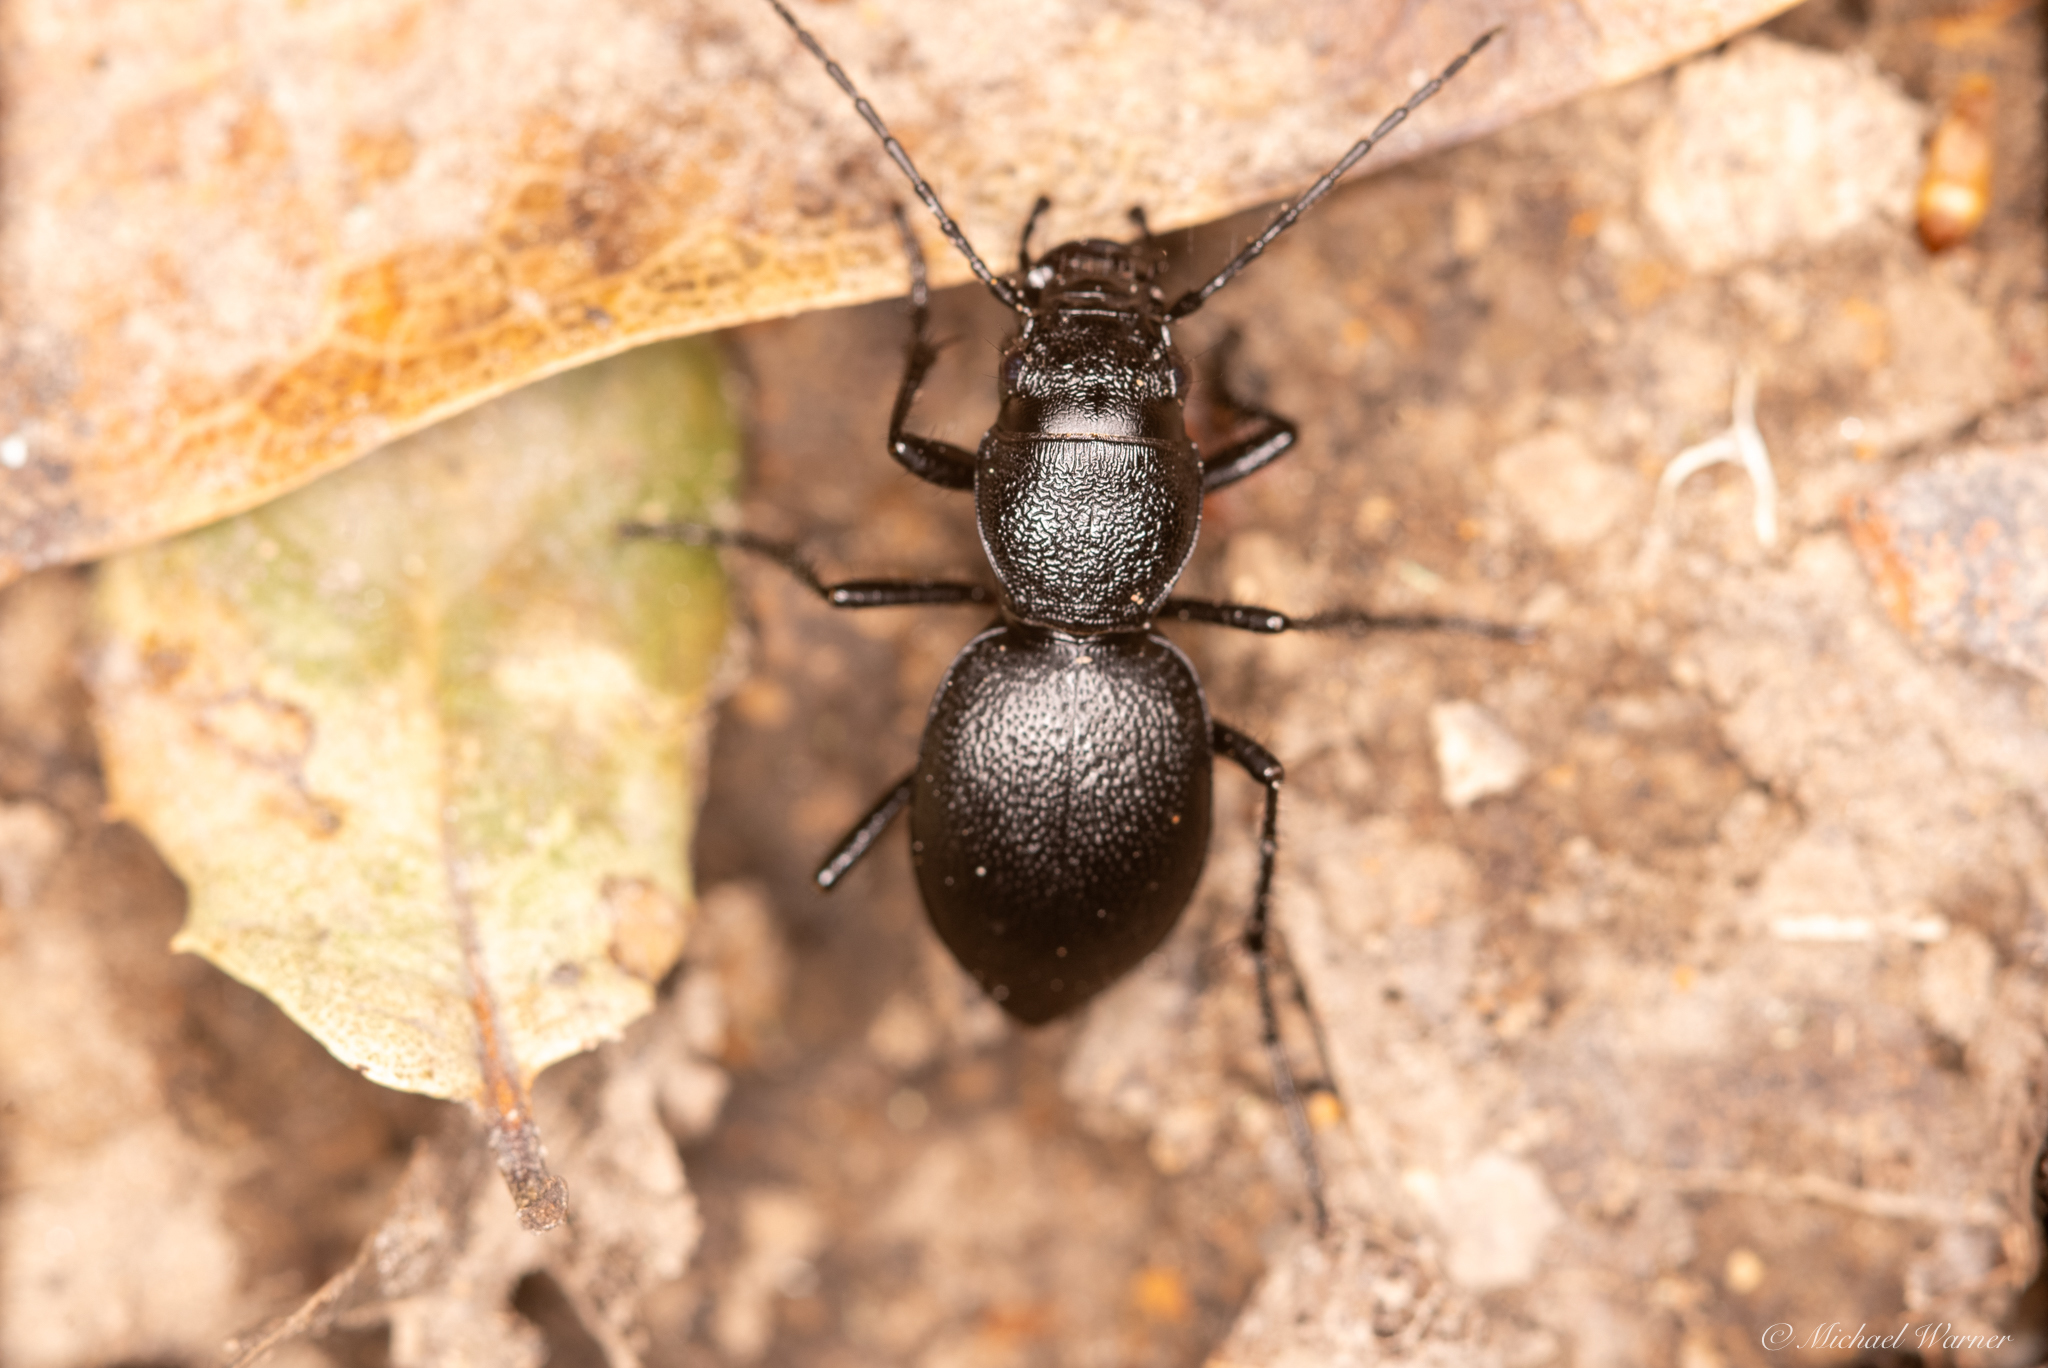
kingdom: Animalia
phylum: Arthropoda
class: Insecta
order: Coleoptera
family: Carabidae
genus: Omus
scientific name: Omus californicus
